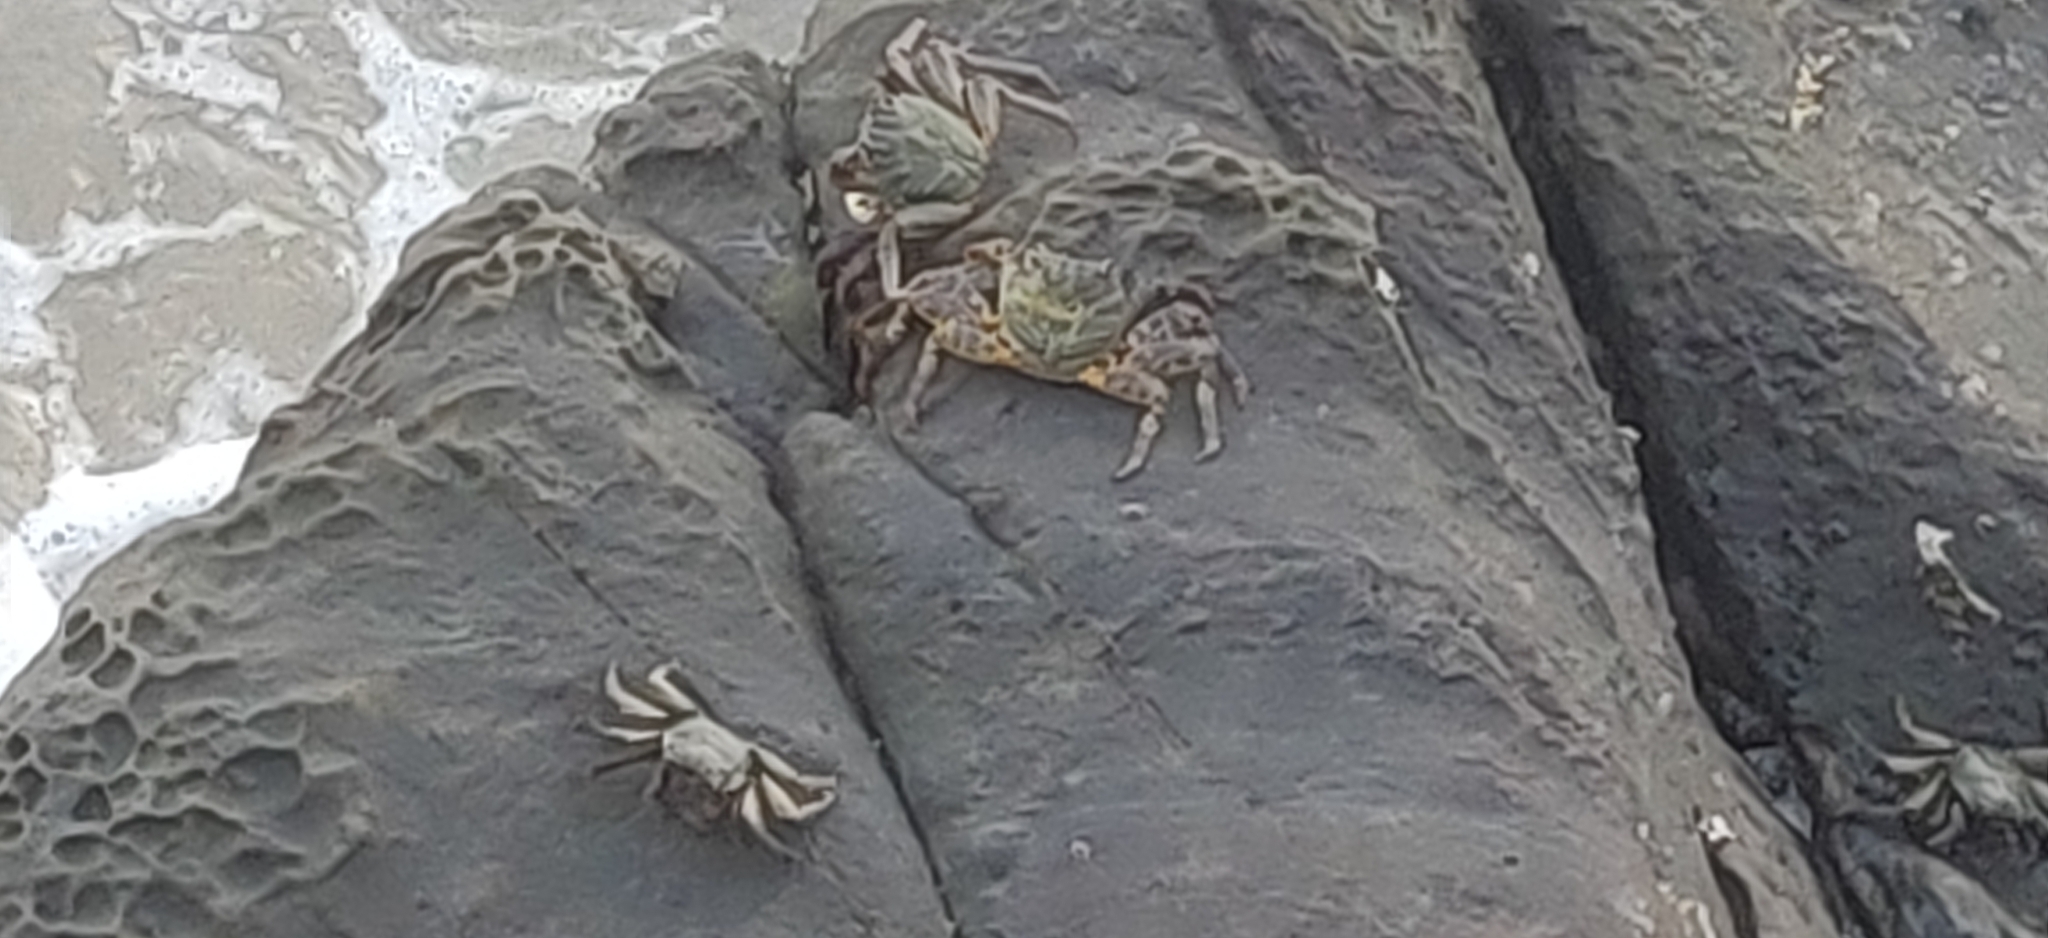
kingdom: Animalia
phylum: Arthropoda
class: Malacostraca
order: Decapoda
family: Grapsidae
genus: Grapsus
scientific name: Grapsus albolineatus
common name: Mottled lightfoot crab
